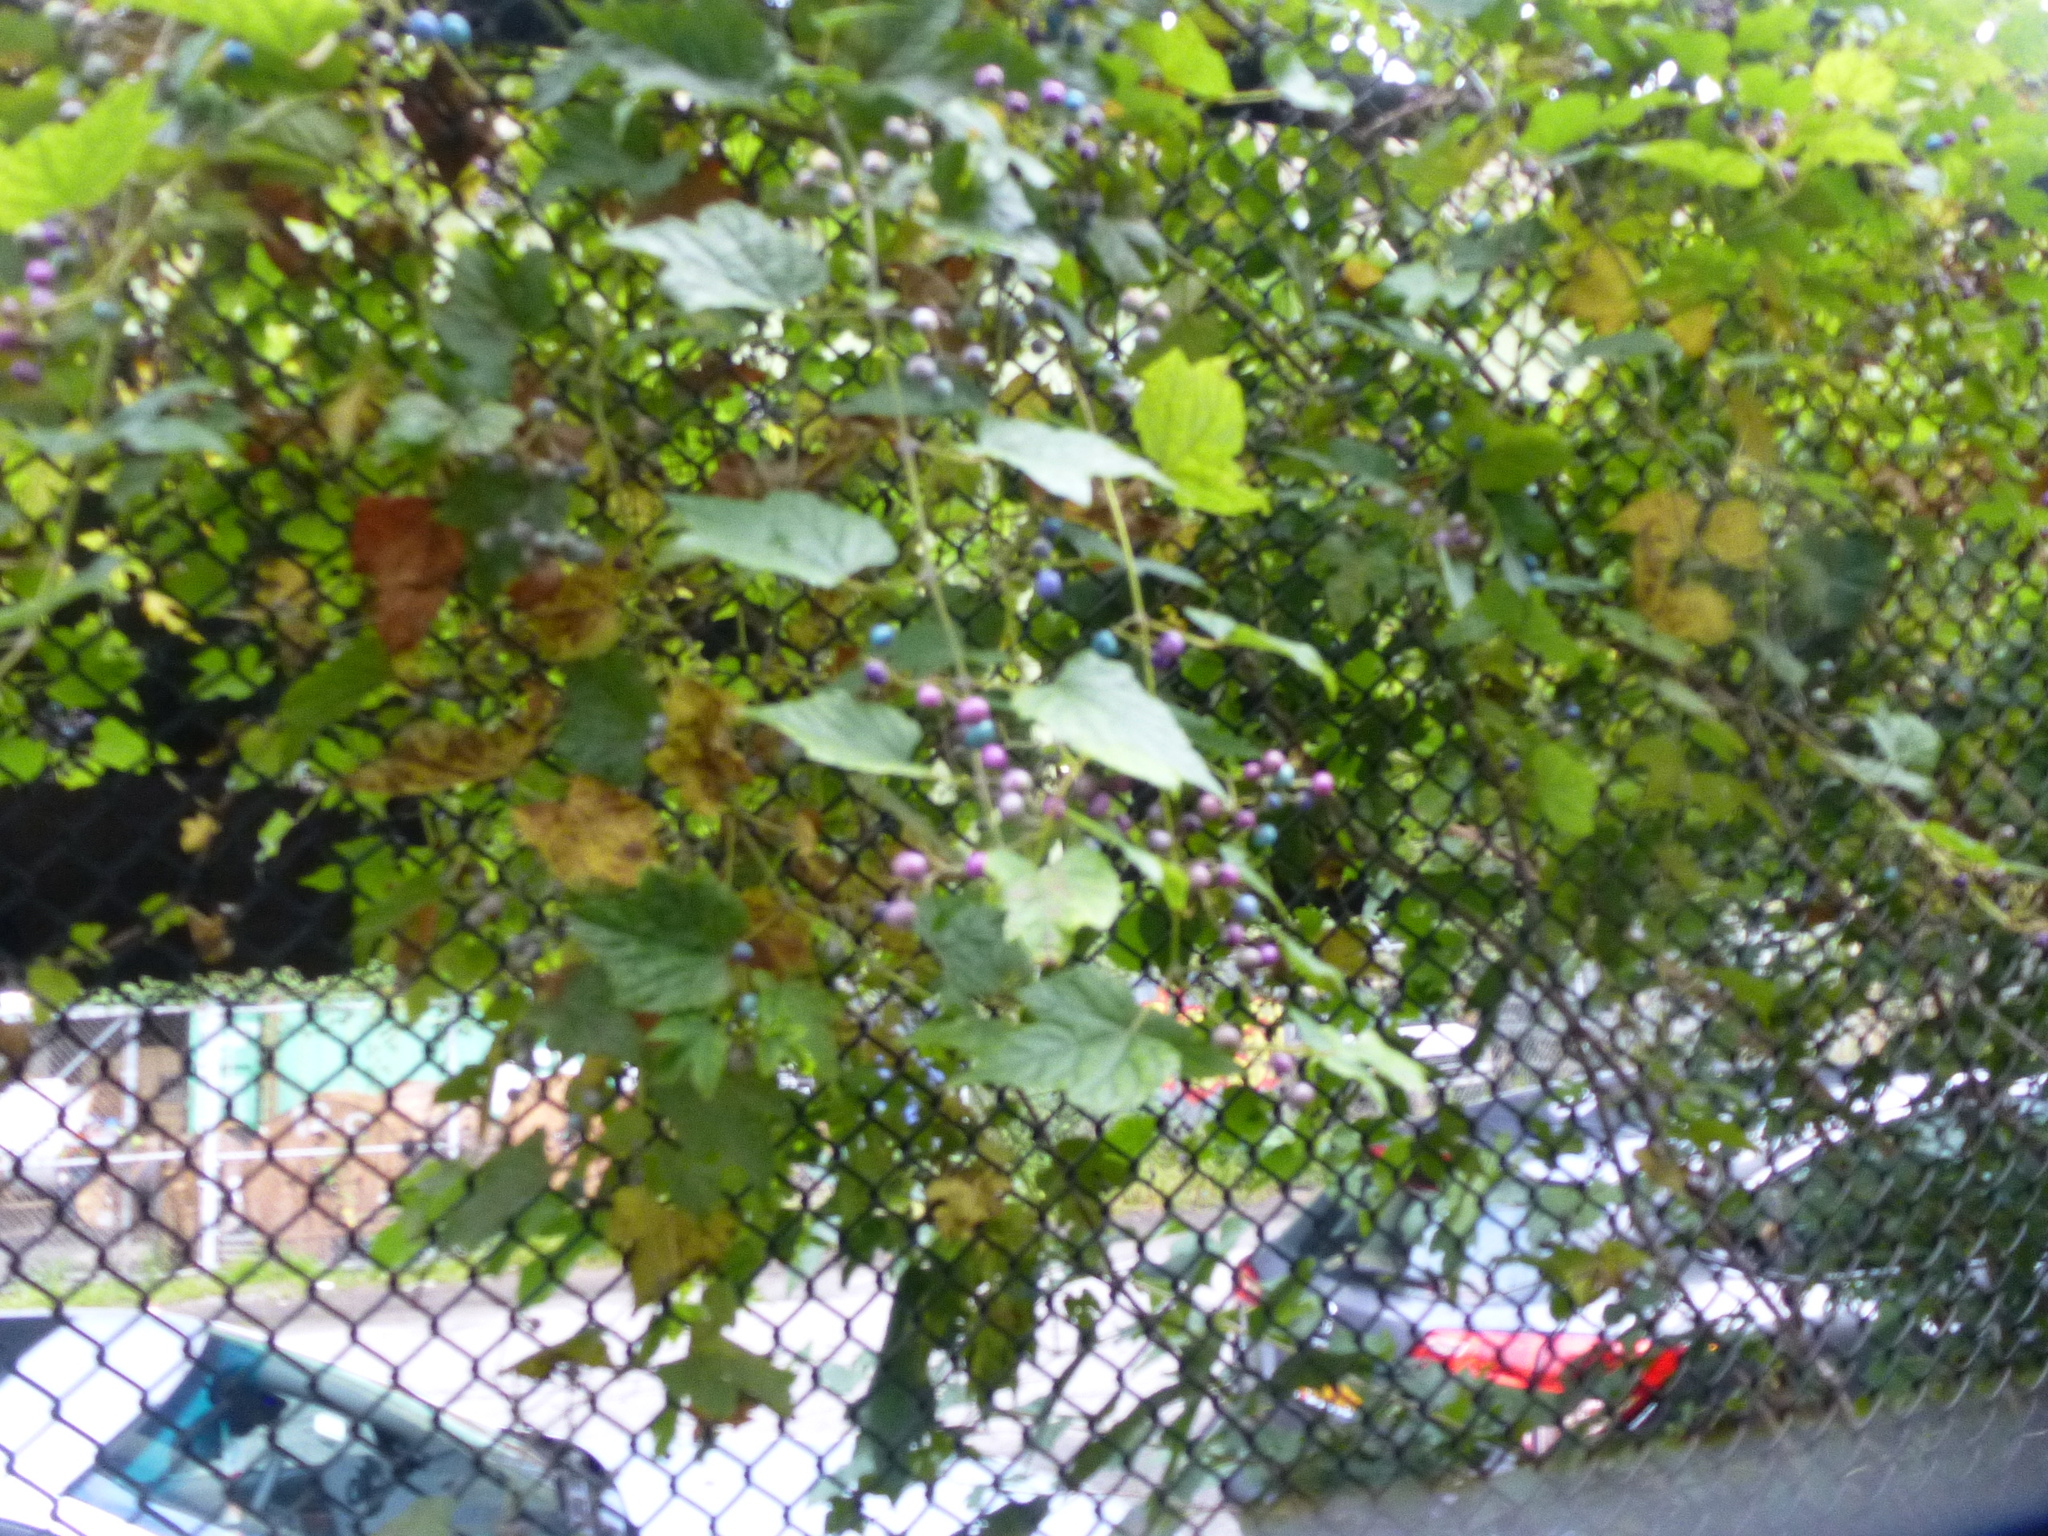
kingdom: Plantae
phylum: Tracheophyta
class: Magnoliopsida
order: Vitales
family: Vitaceae
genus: Ampelopsis
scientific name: Ampelopsis glandulosa
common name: Amur peppervine
